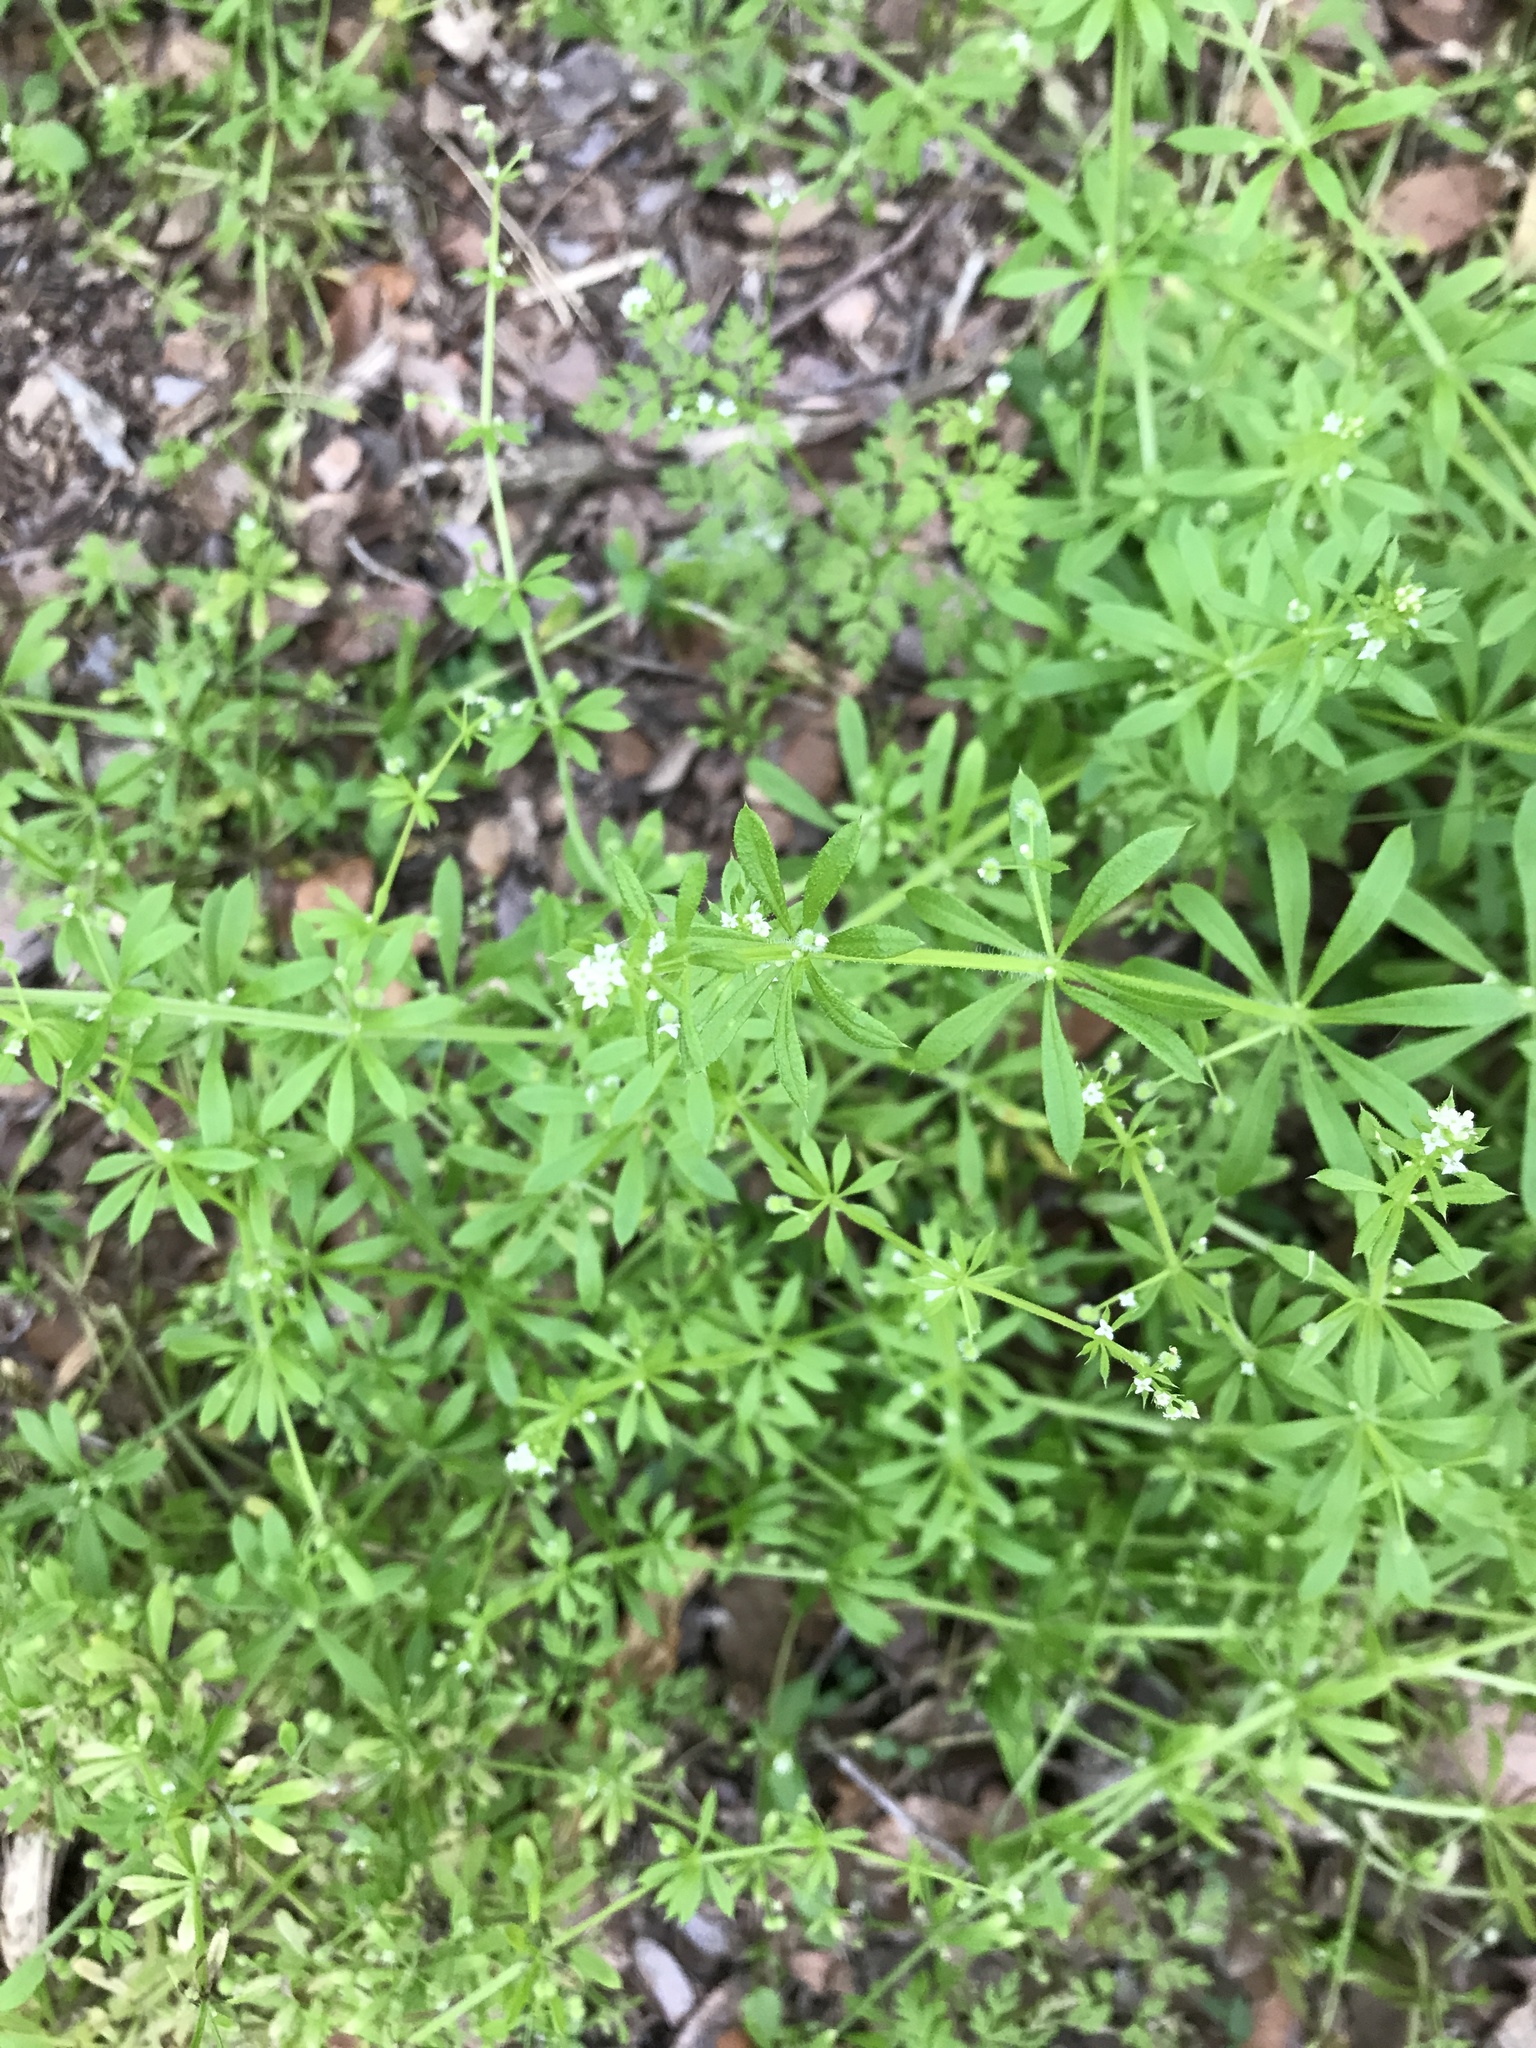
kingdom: Plantae
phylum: Tracheophyta
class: Magnoliopsida
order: Gentianales
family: Rubiaceae
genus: Galium
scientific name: Galium aparine
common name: Cleavers
